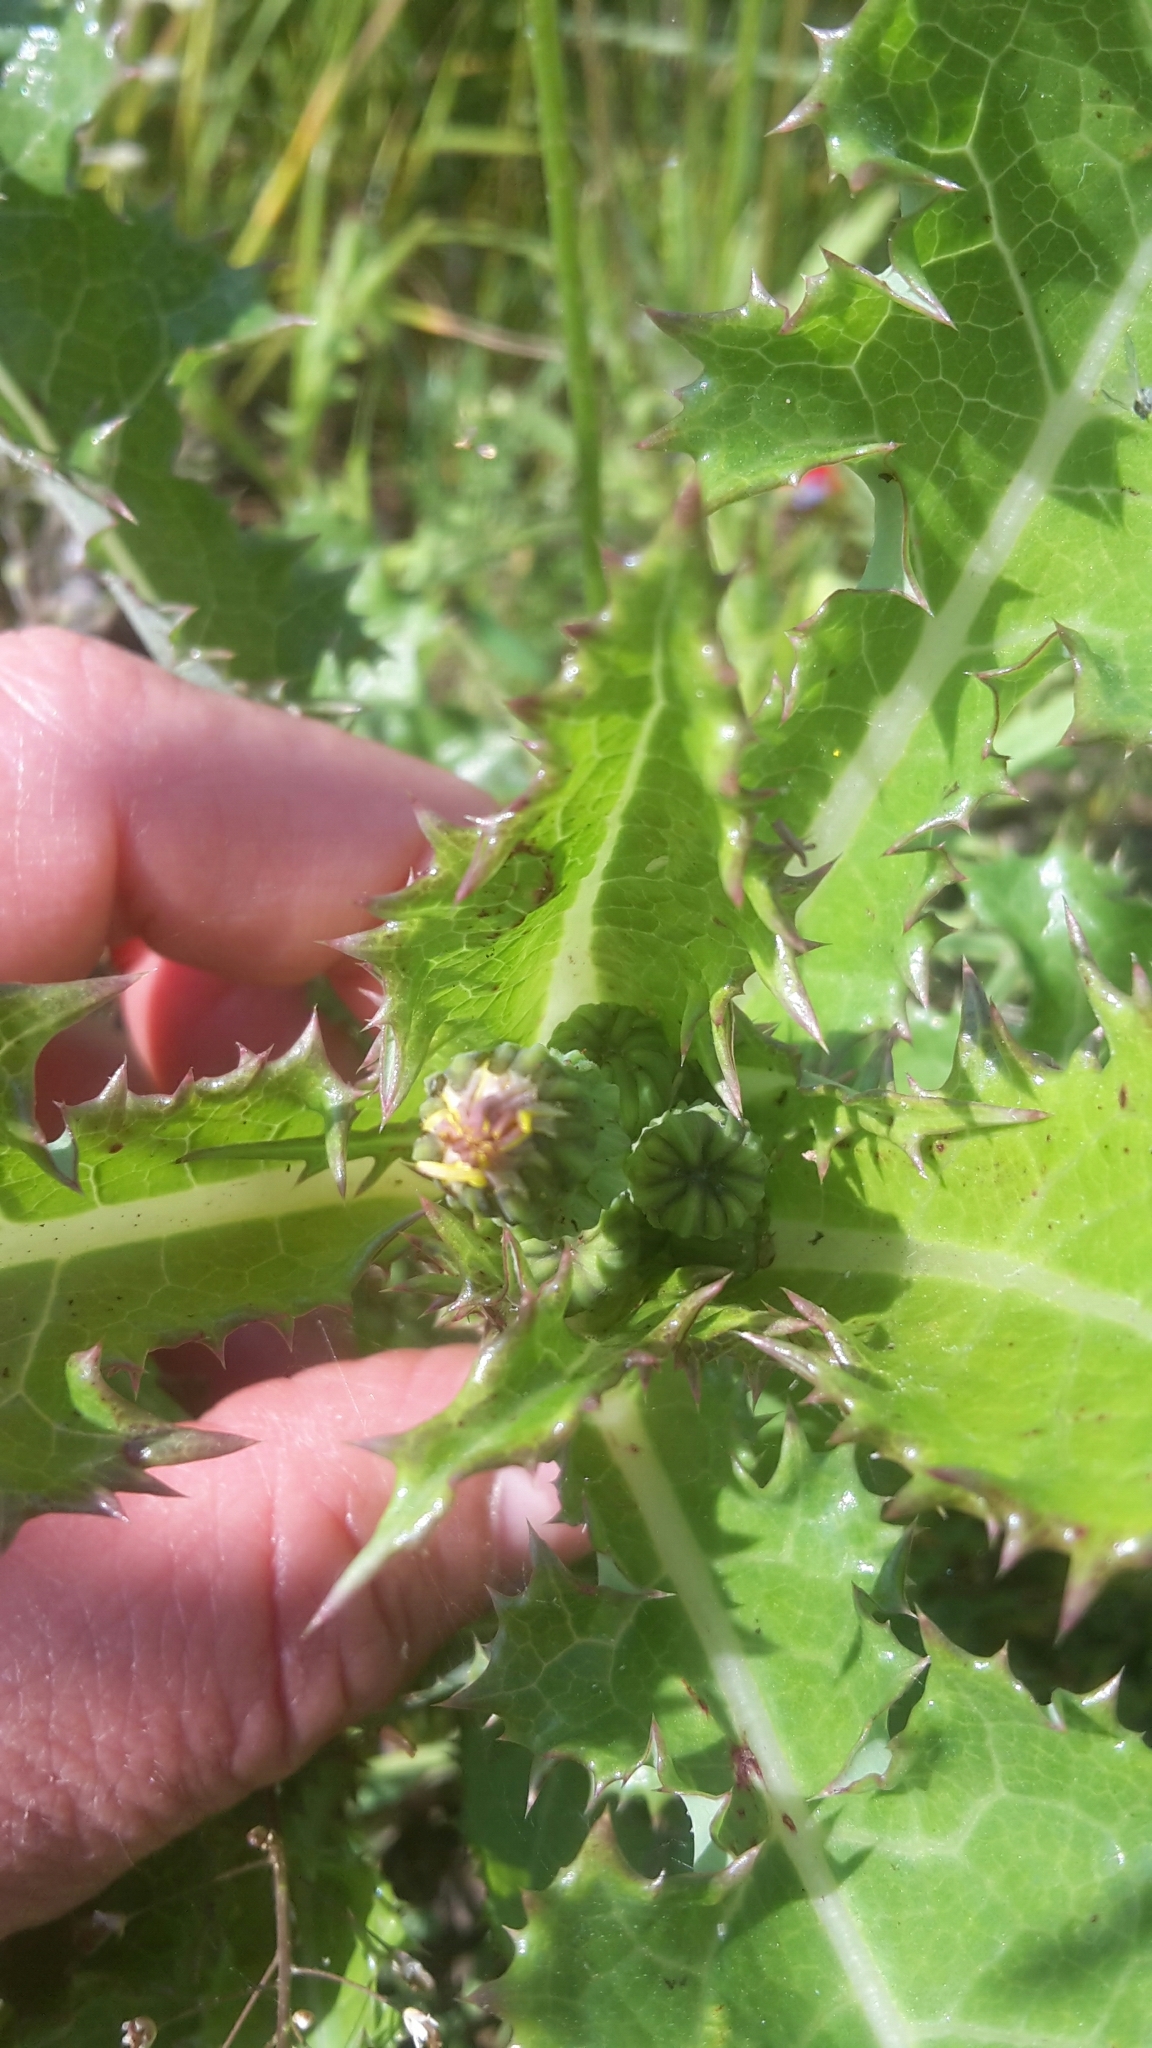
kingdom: Plantae
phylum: Tracheophyta
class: Magnoliopsida
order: Asterales
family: Asteraceae
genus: Sonchus
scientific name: Sonchus asper
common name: Prickly sow-thistle
